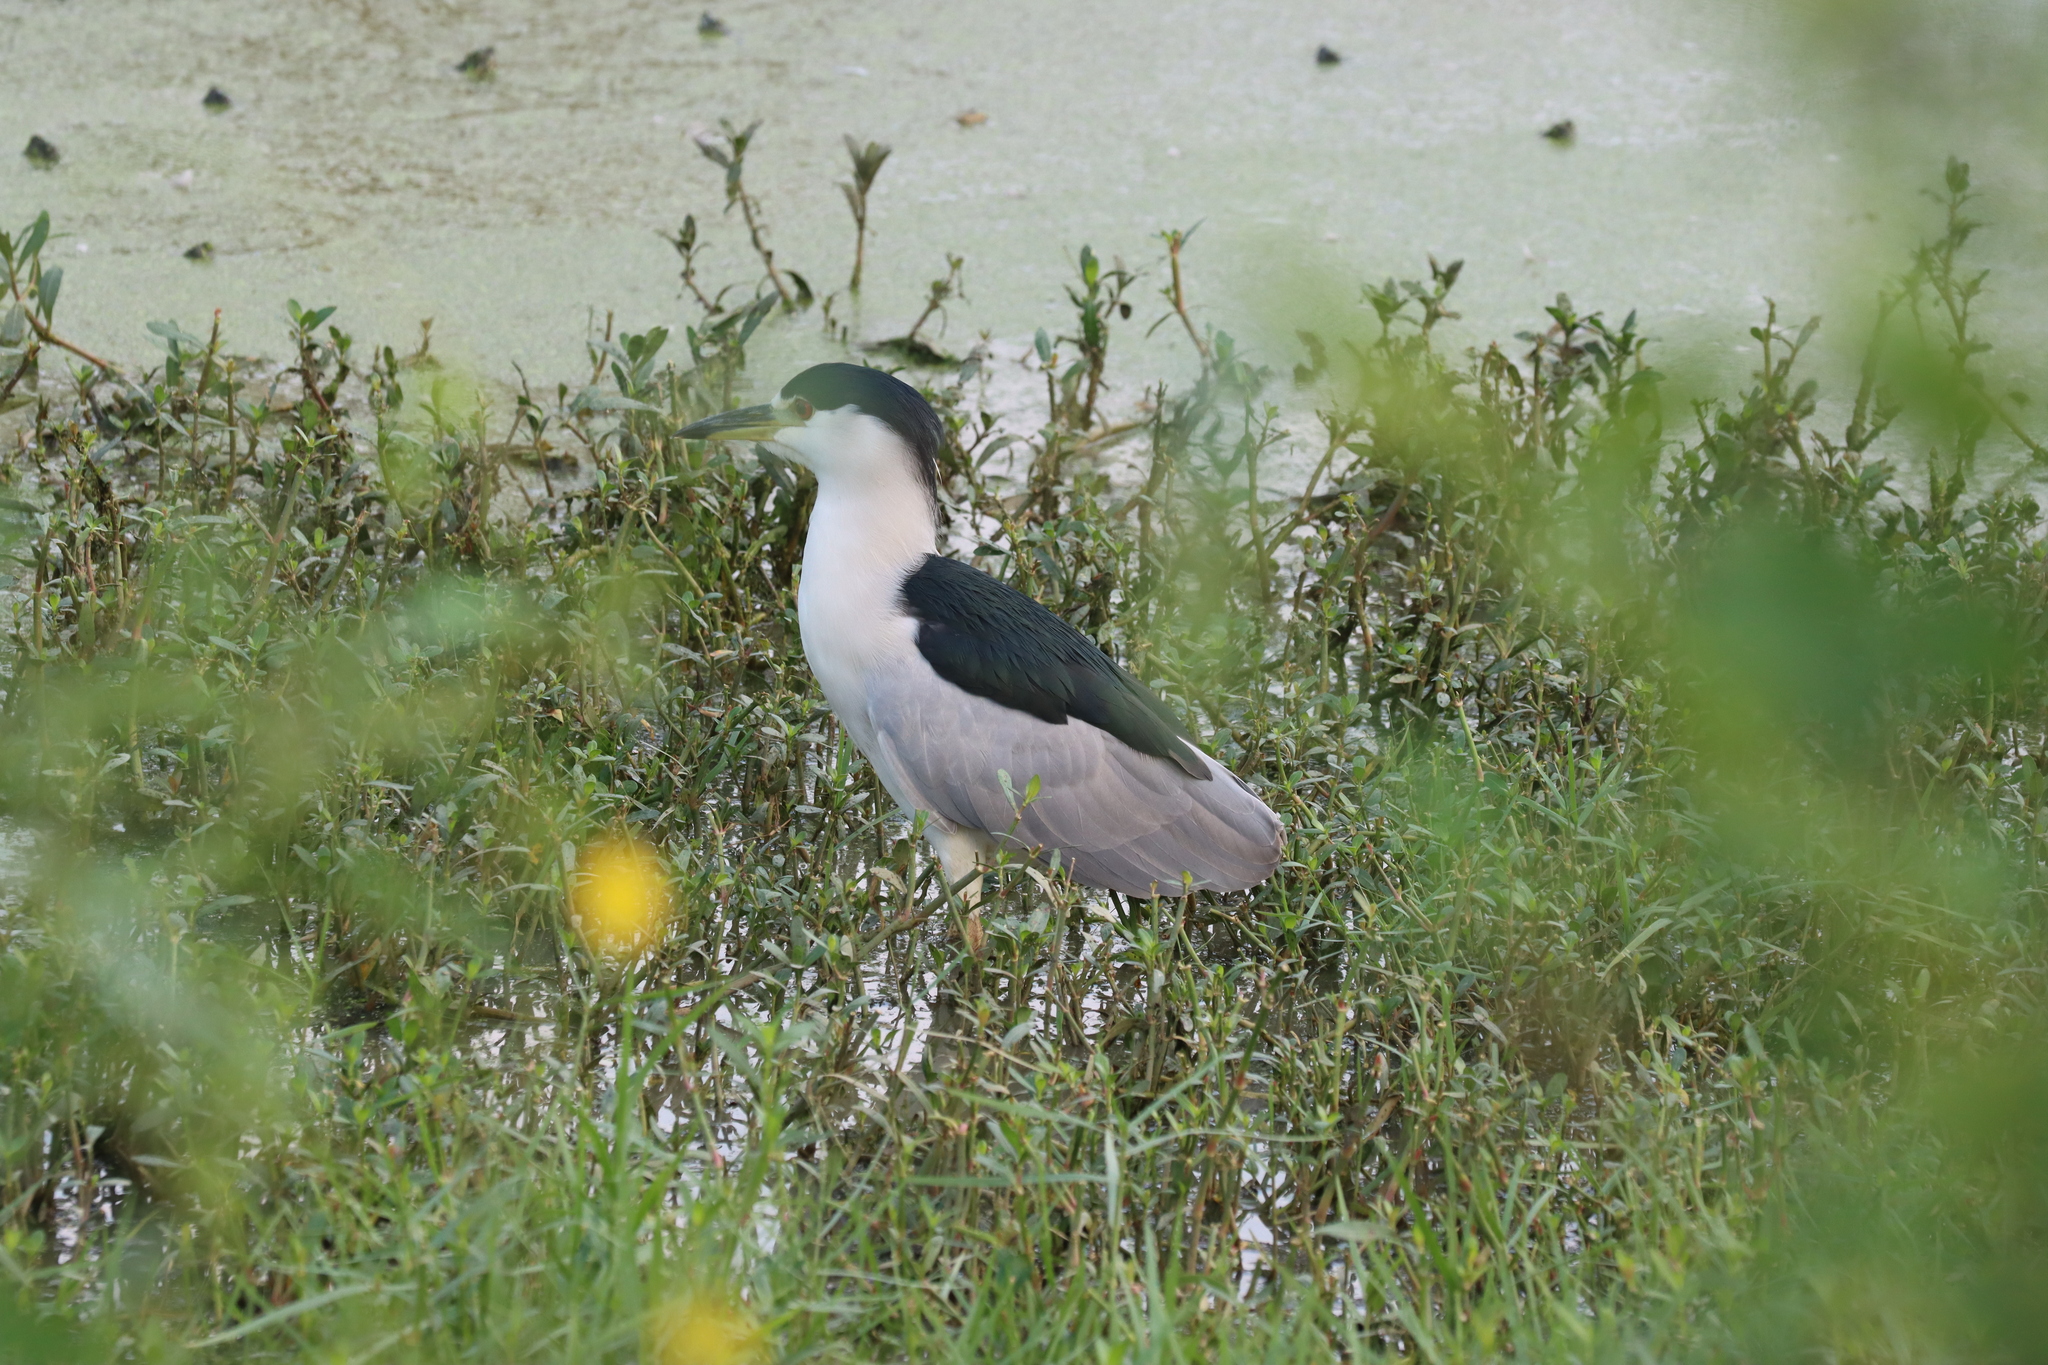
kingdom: Animalia
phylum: Chordata
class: Aves
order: Pelecaniformes
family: Ardeidae
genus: Nycticorax
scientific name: Nycticorax nycticorax
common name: Black-crowned night heron
